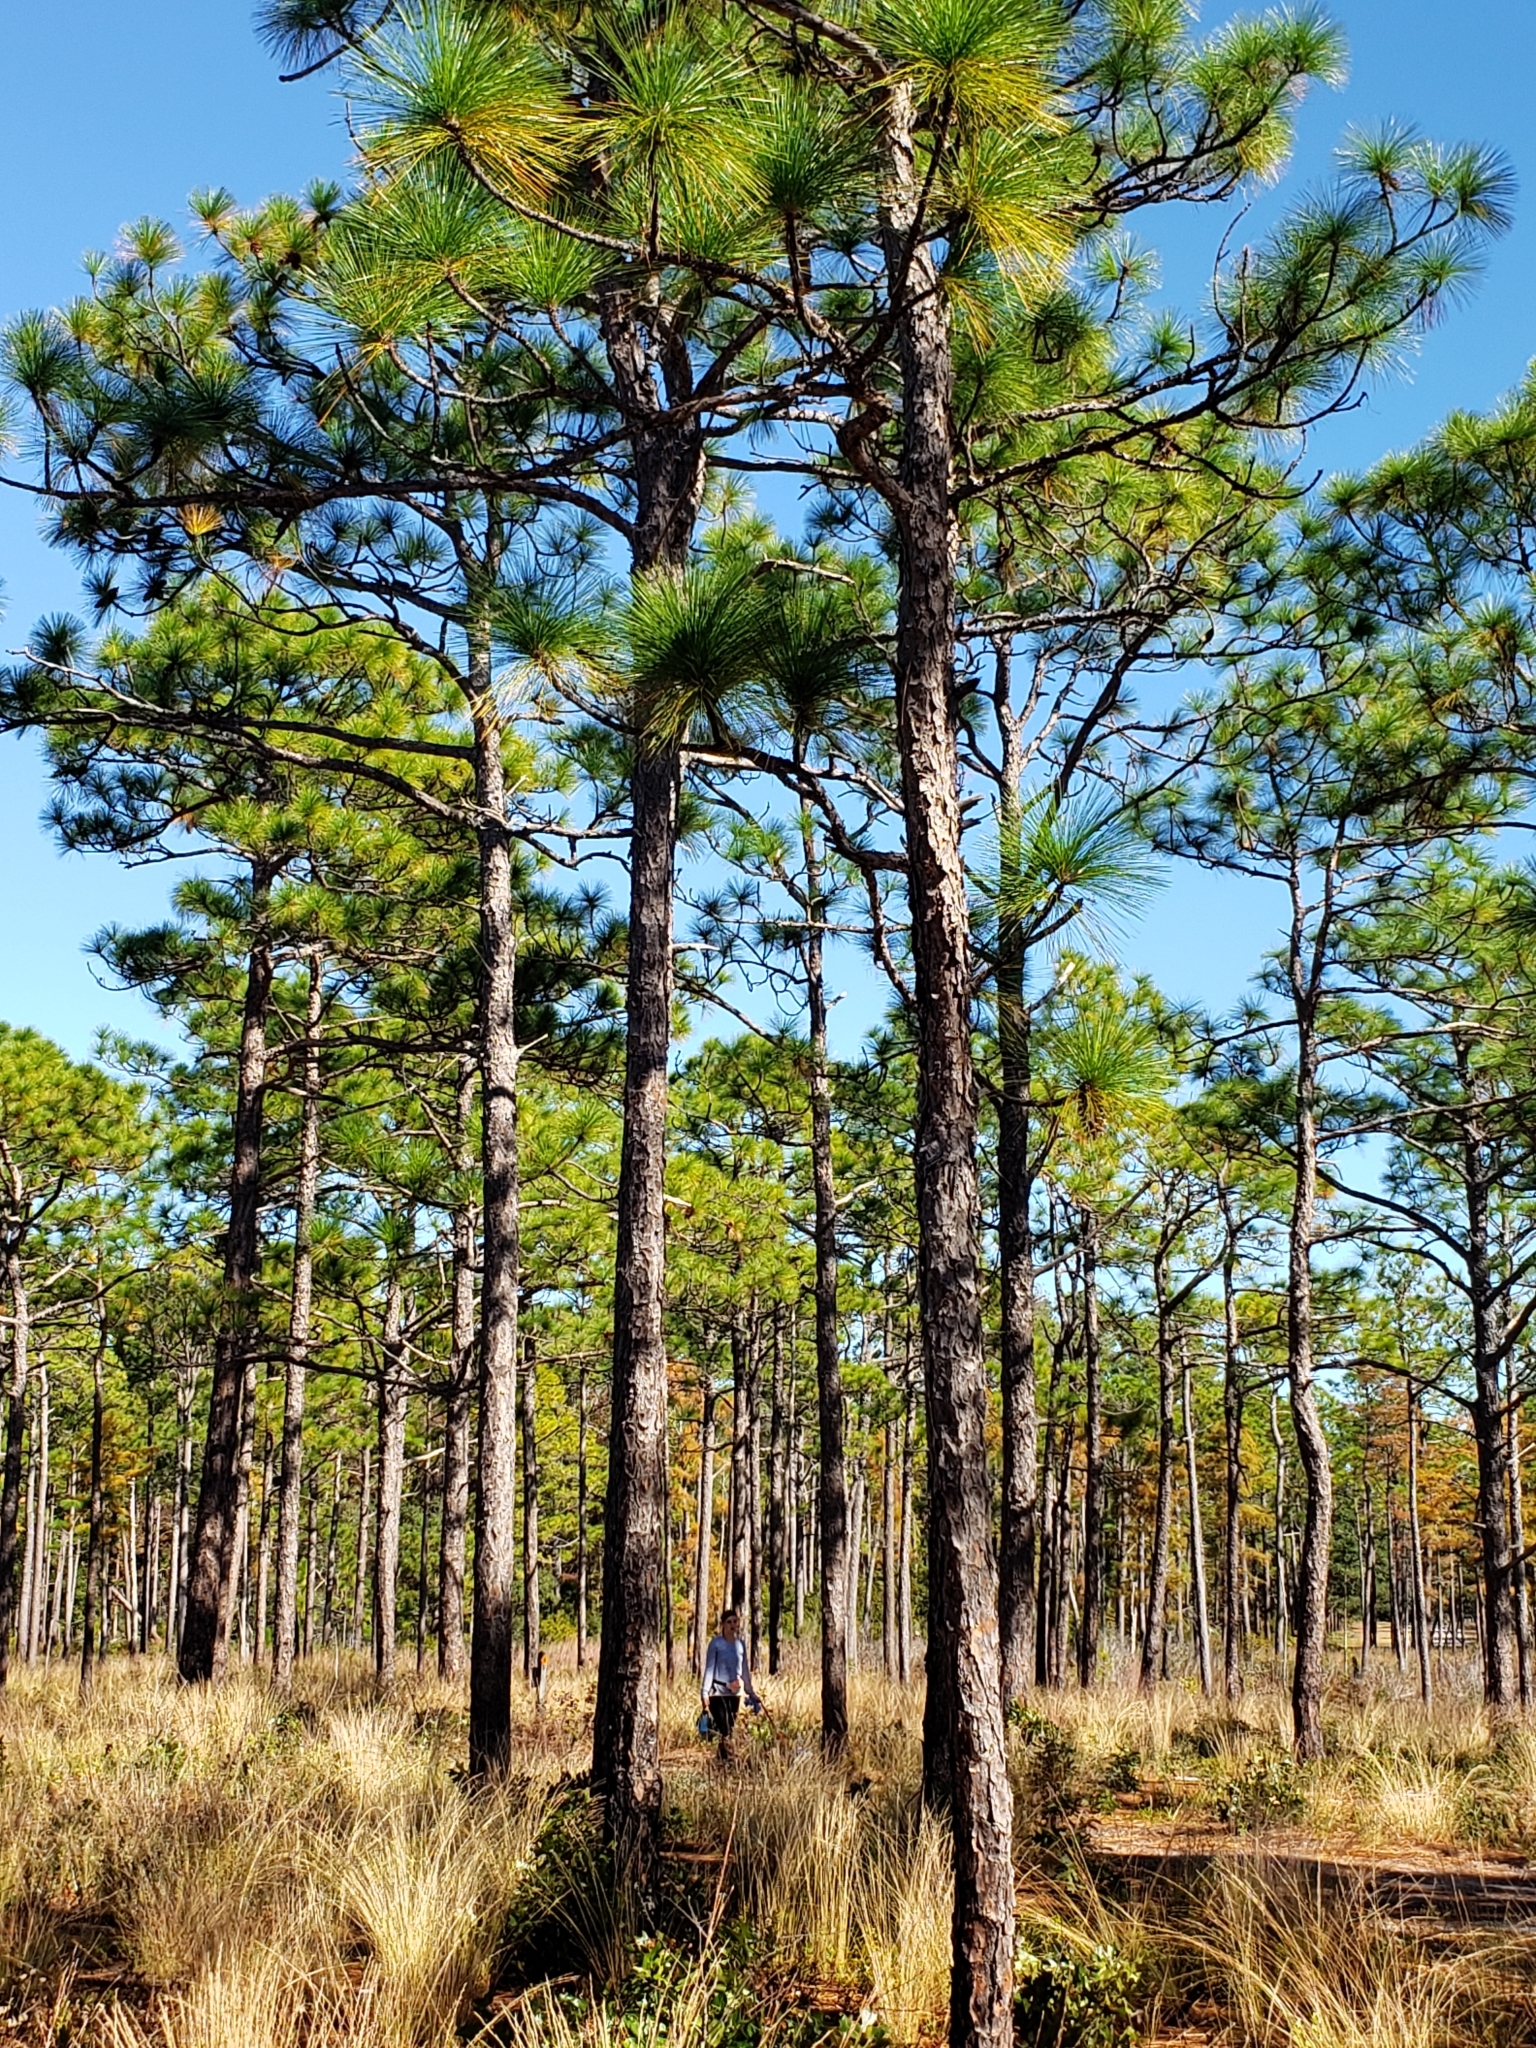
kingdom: Plantae
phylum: Tracheophyta
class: Pinopsida
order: Pinales
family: Pinaceae
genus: Pinus
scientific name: Pinus palustris
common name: Longleaf pine
